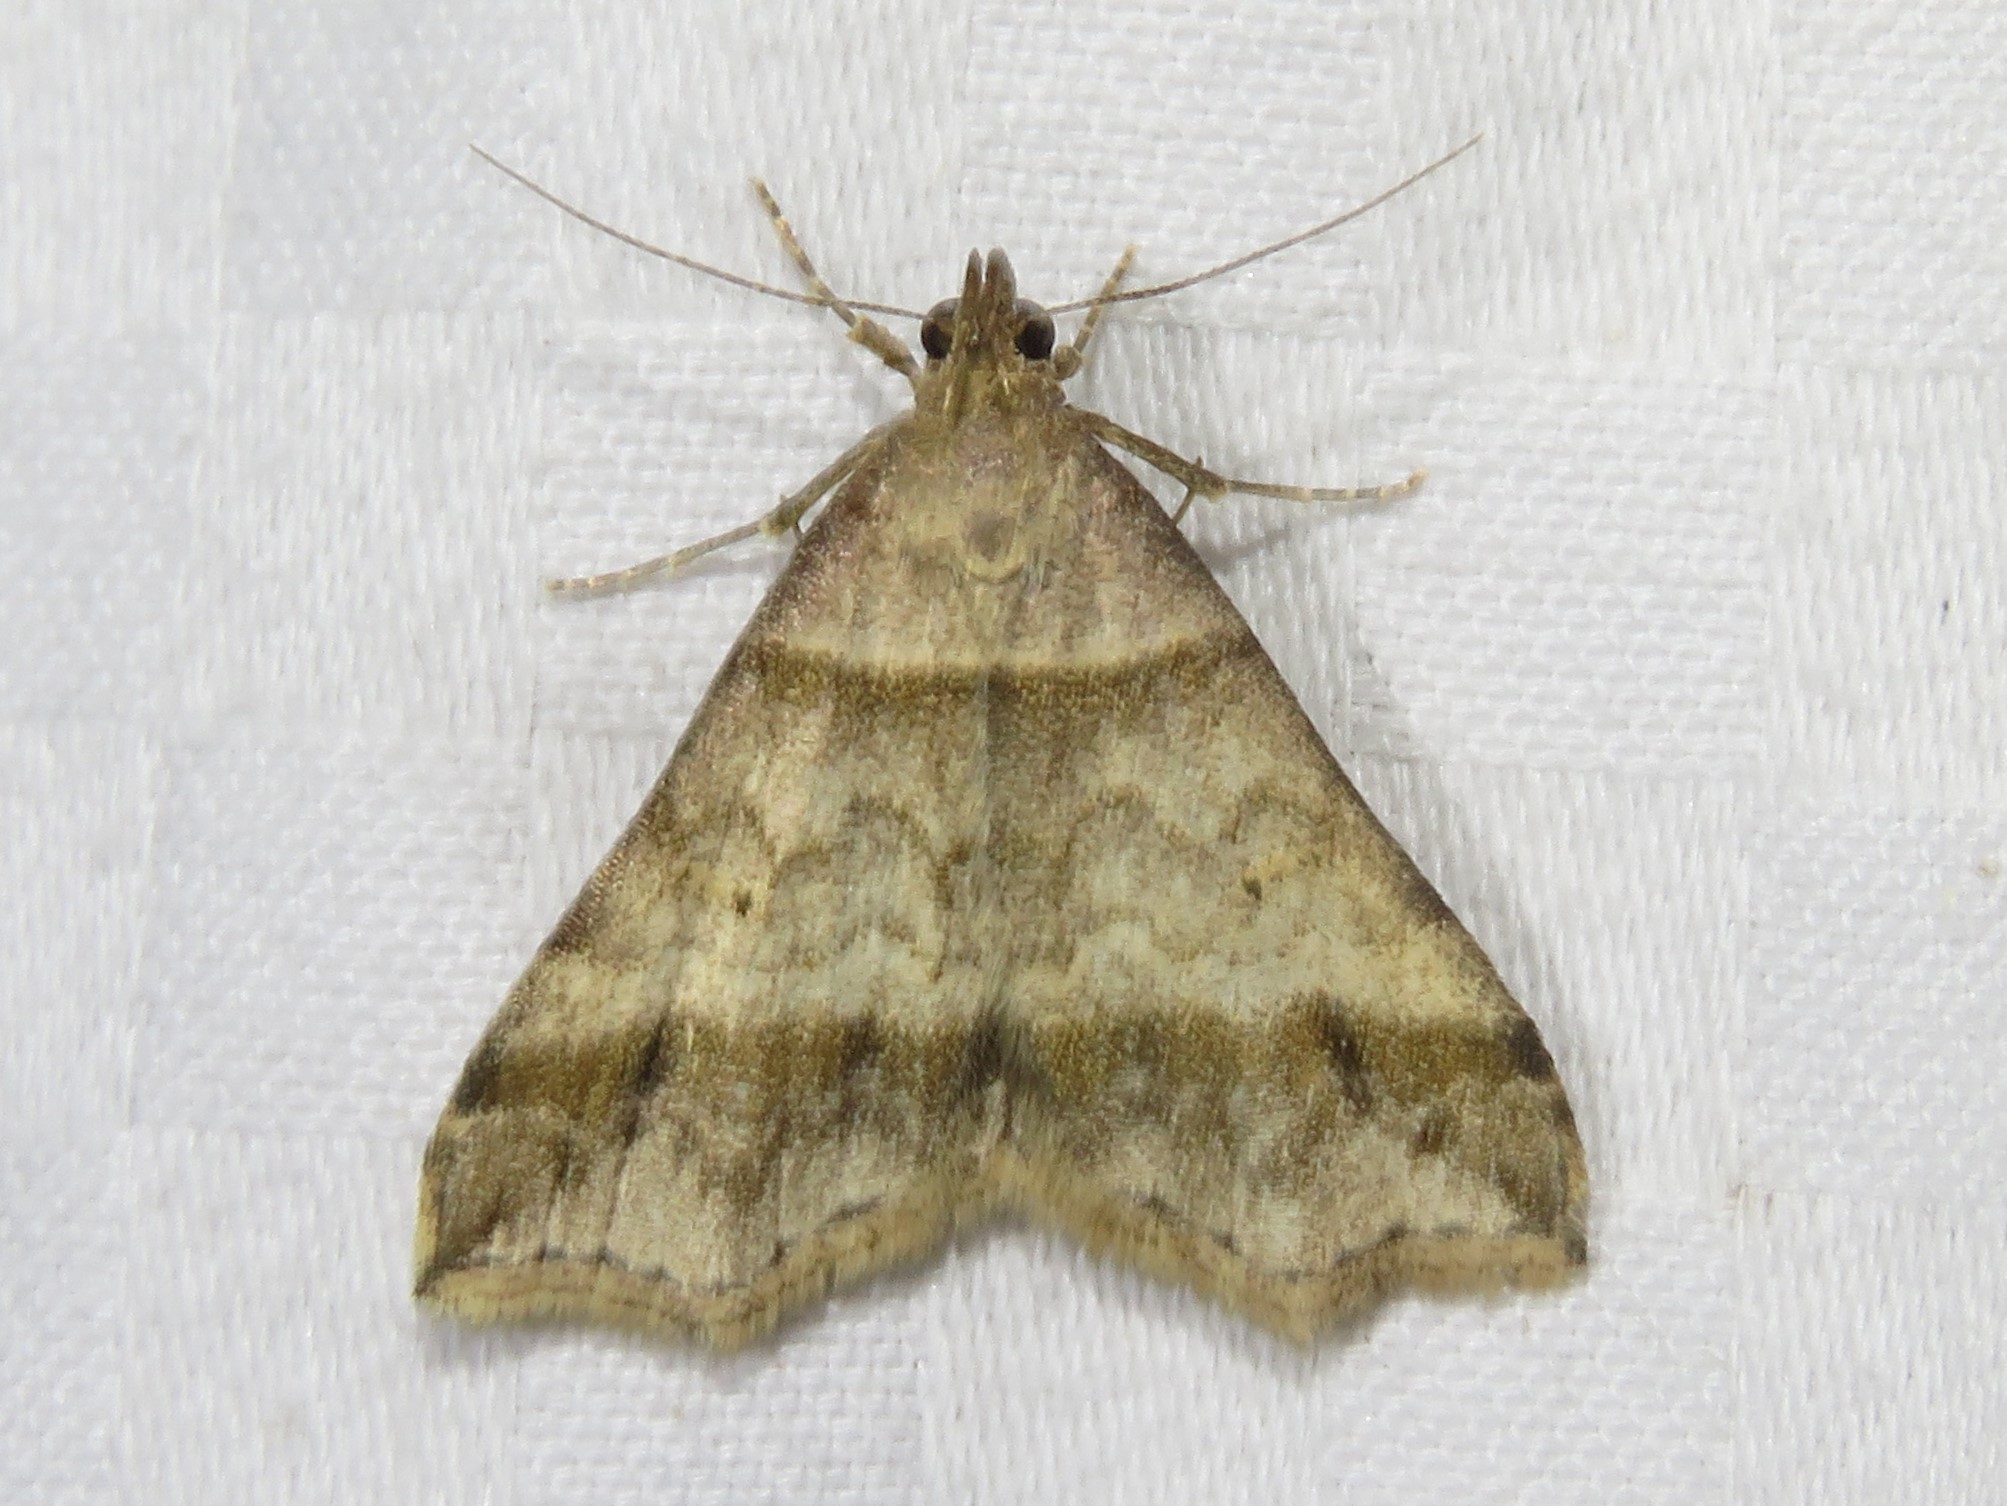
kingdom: Animalia
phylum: Arthropoda
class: Insecta
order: Lepidoptera
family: Erebidae
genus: Phaeolita
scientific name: Phaeolita pyramusalis
